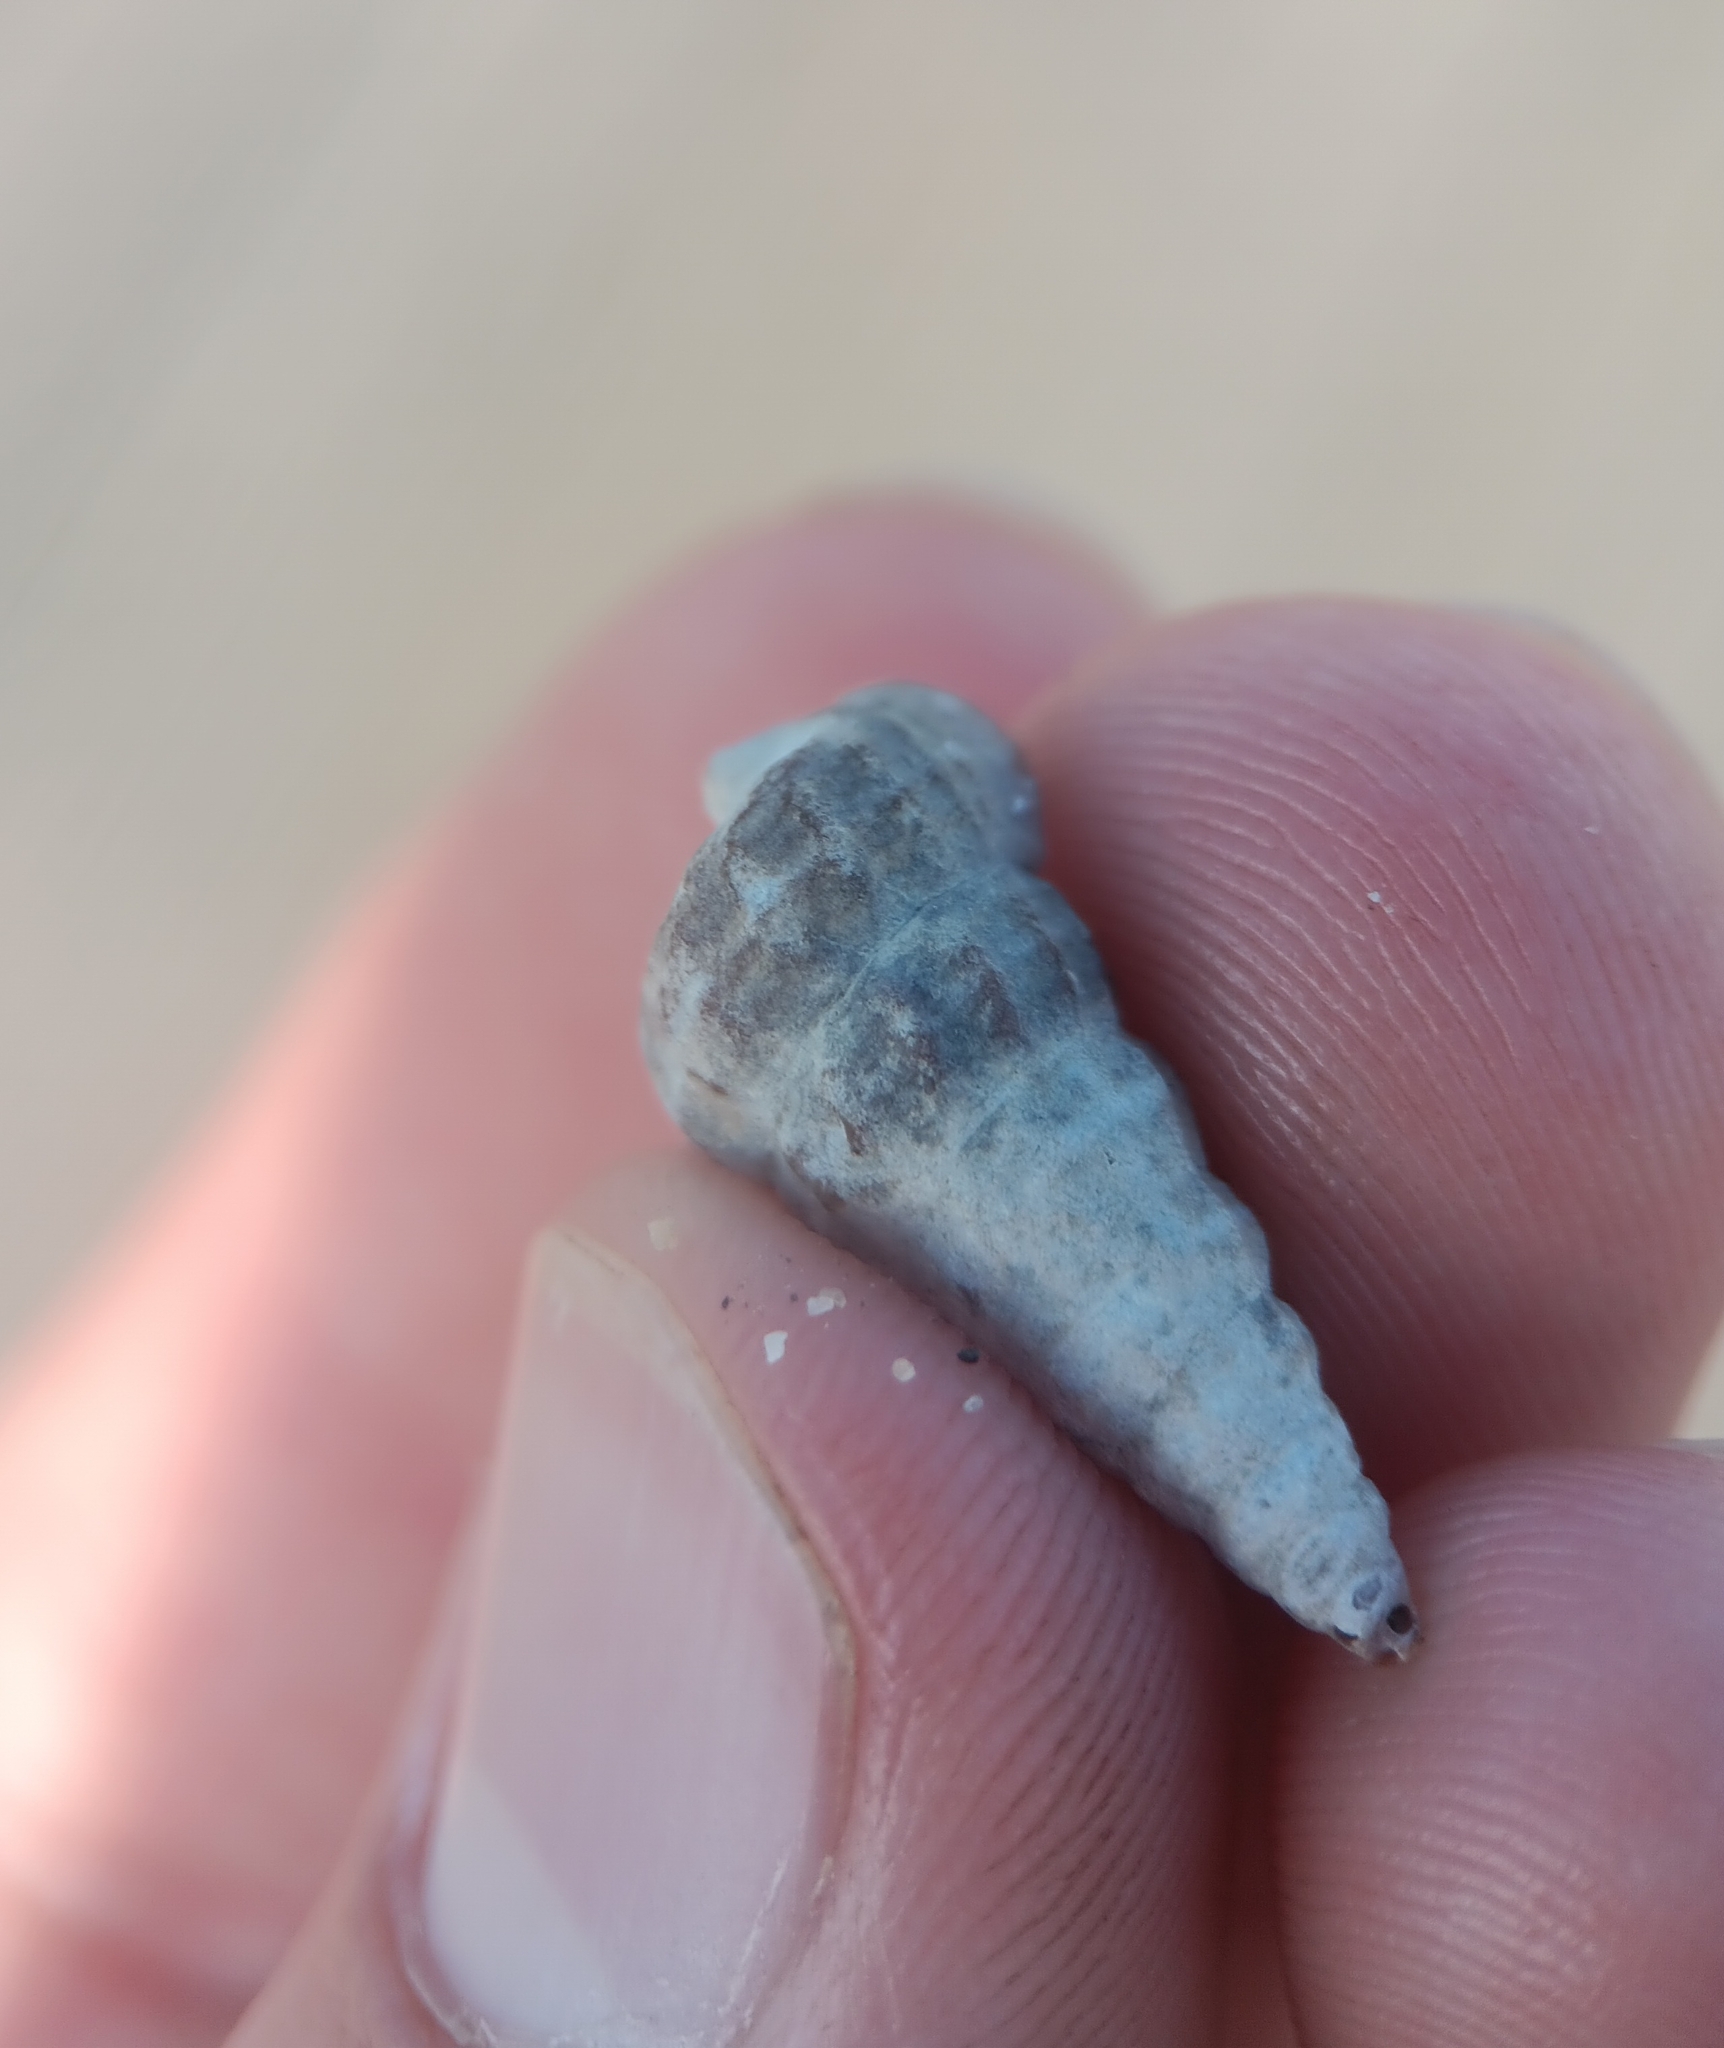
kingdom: Animalia
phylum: Mollusca
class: Gastropoda
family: Potamididae
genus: Cerithideopsis
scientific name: Cerithideopsis californica
